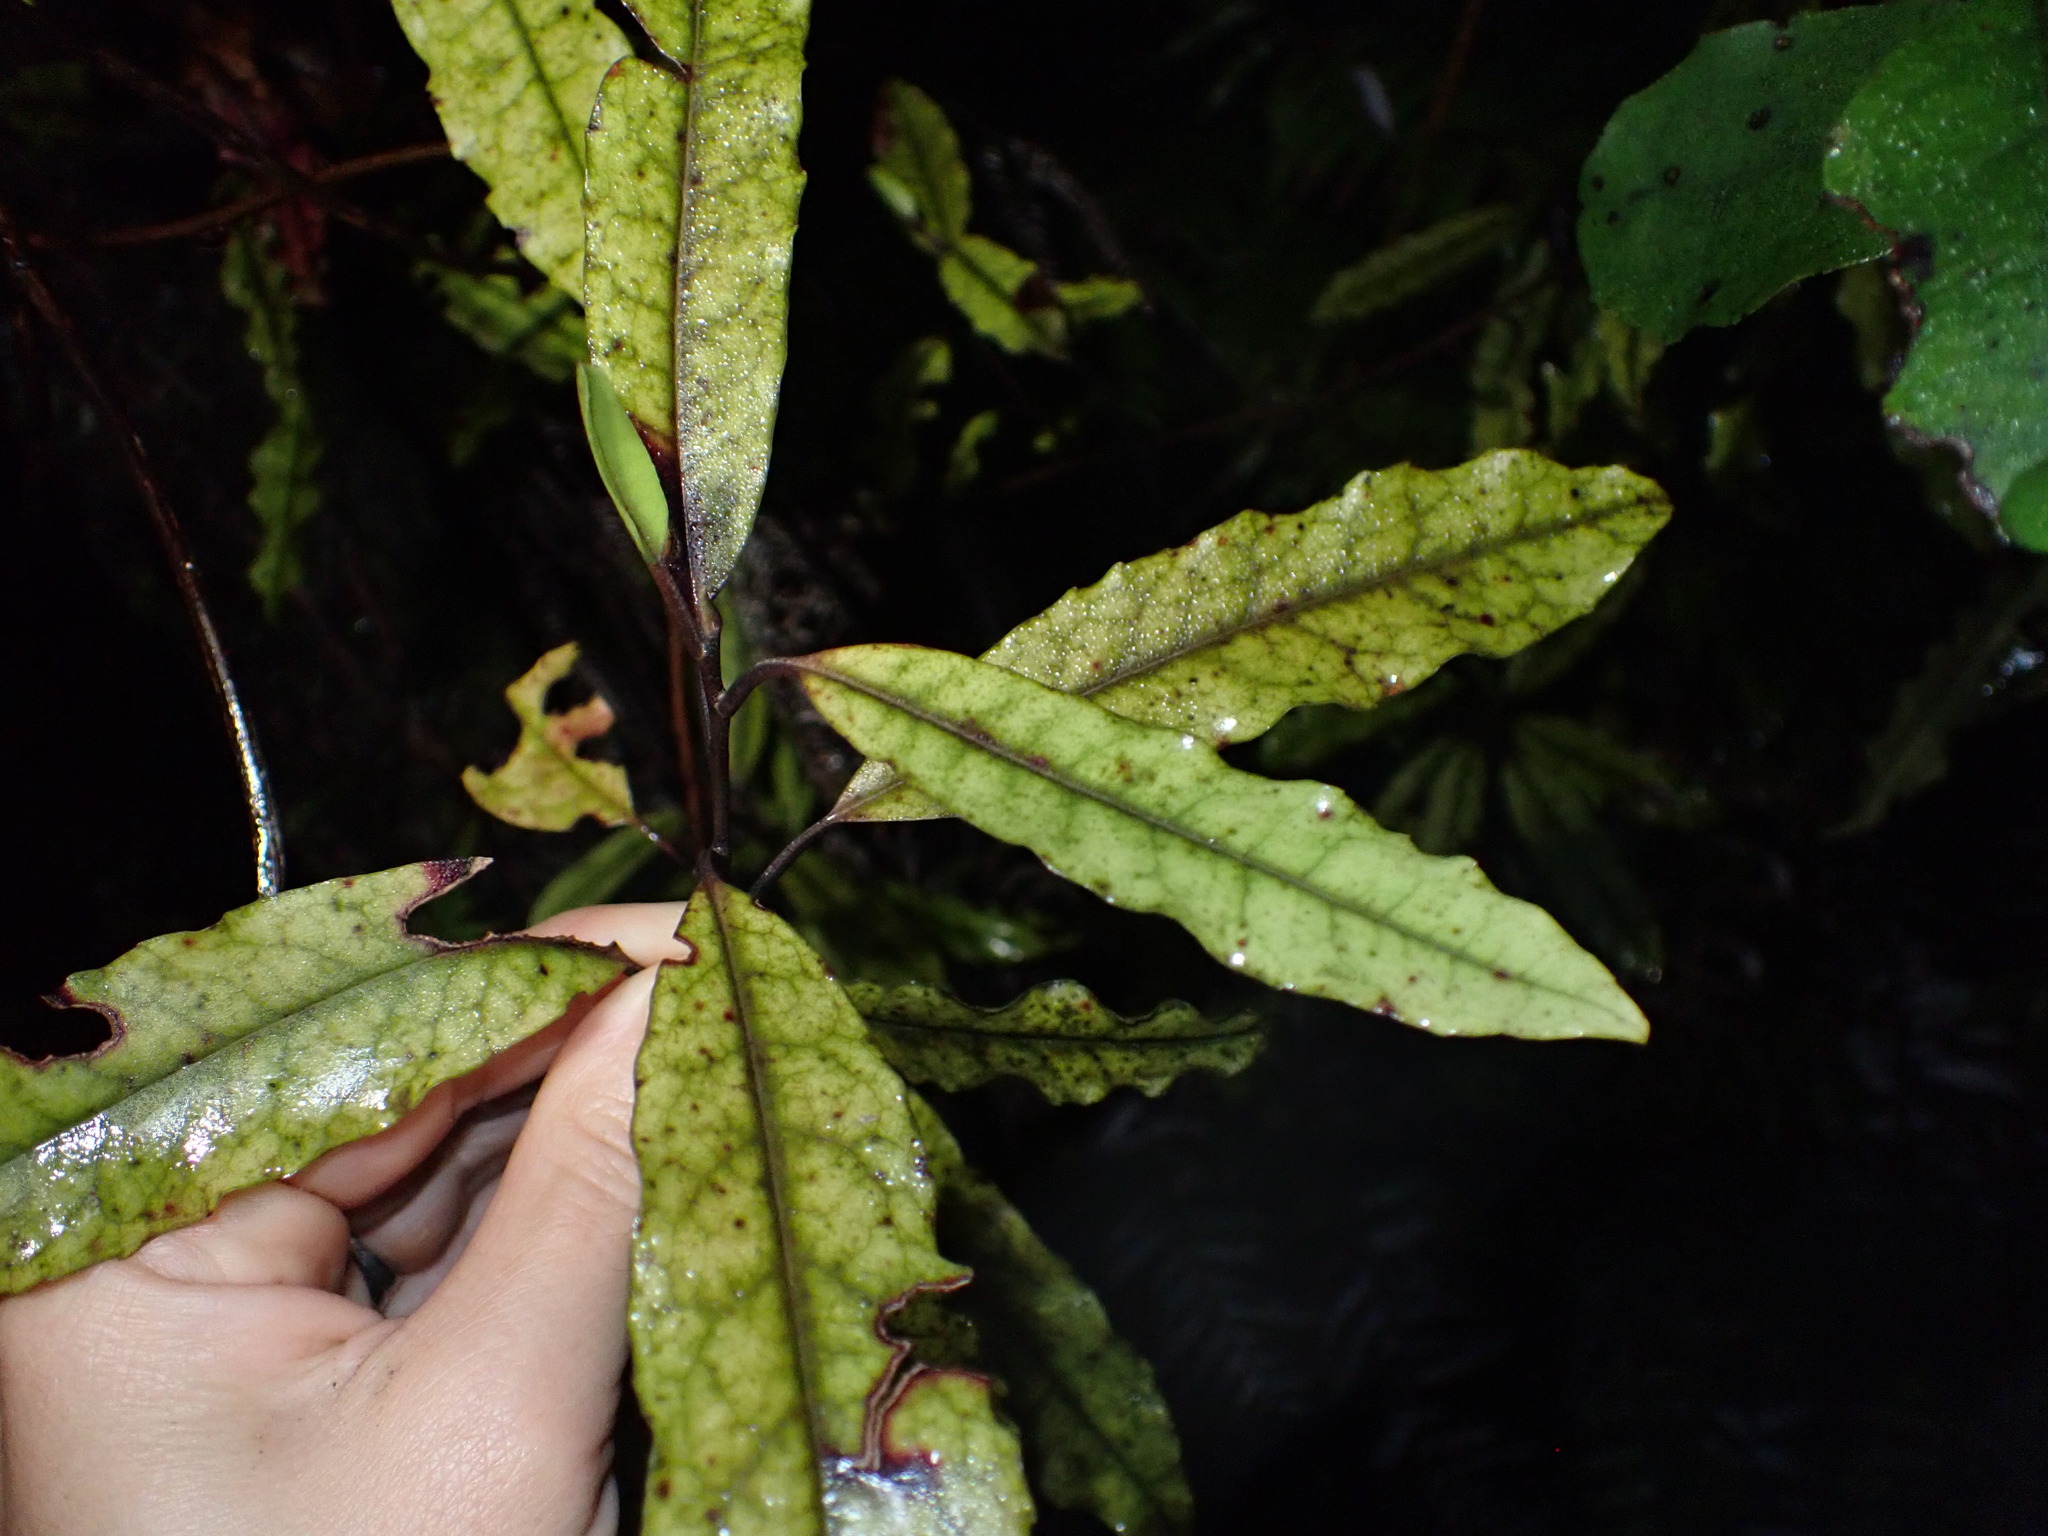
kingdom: Plantae
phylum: Tracheophyta
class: Magnoliopsida
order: Paracryphiales
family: Paracryphiaceae
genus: Quintinia
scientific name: Quintinia serrata
